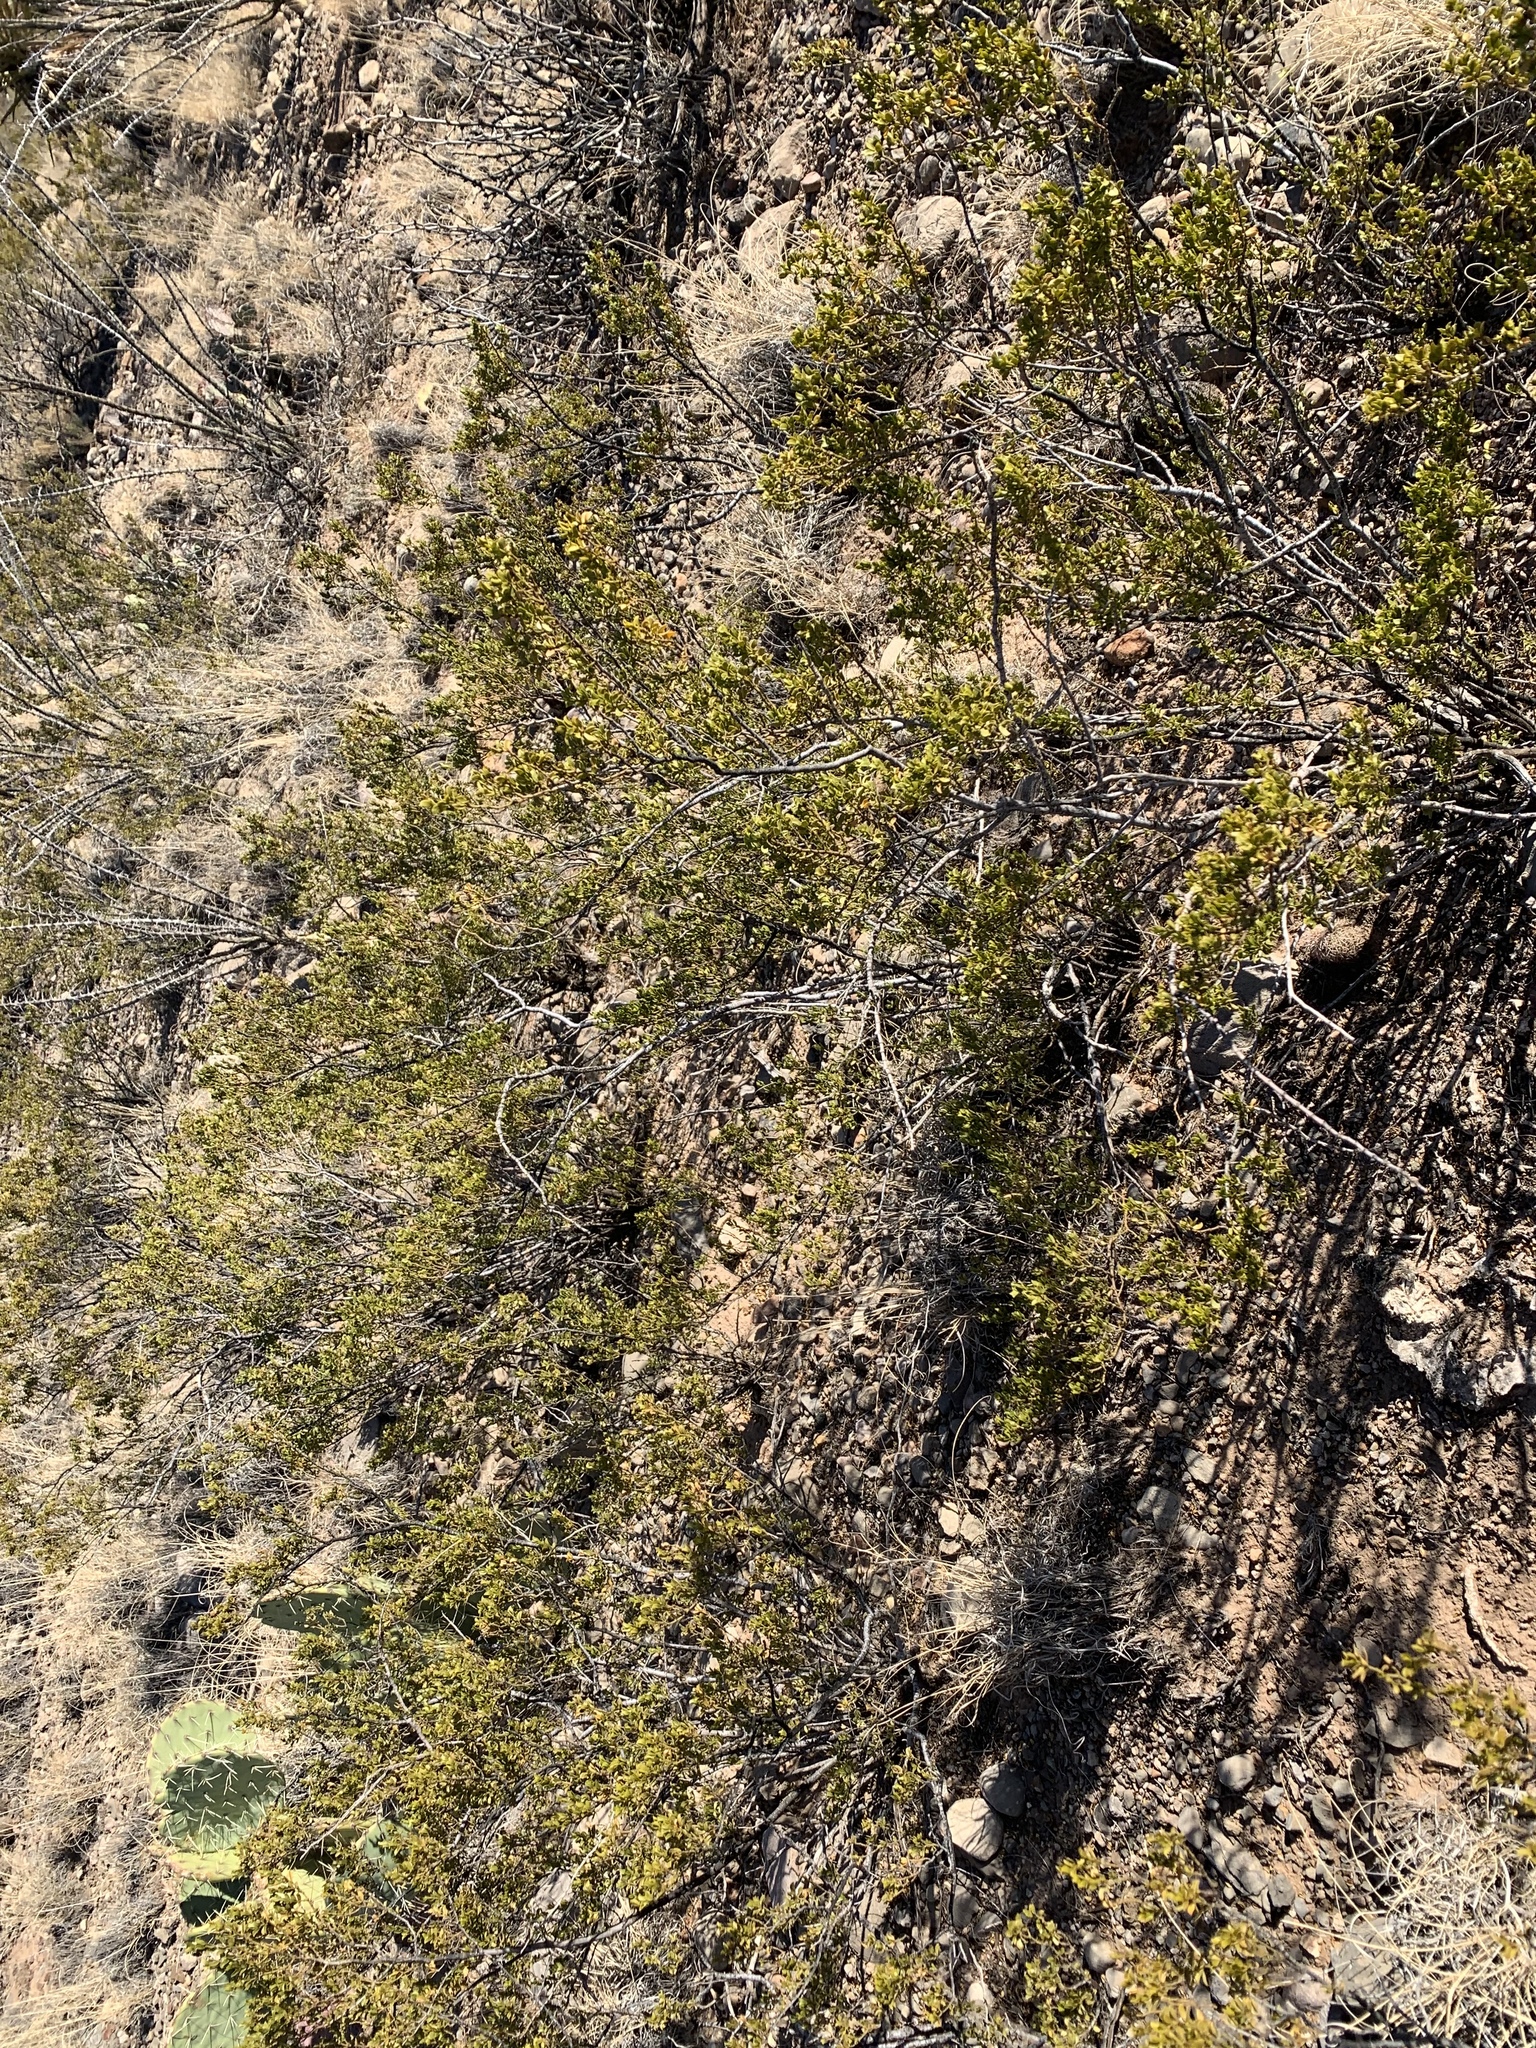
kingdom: Plantae
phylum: Tracheophyta
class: Magnoliopsida
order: Zygophyllales
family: Zygophyllaceae
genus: Larrea
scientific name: Larrea tridentata
